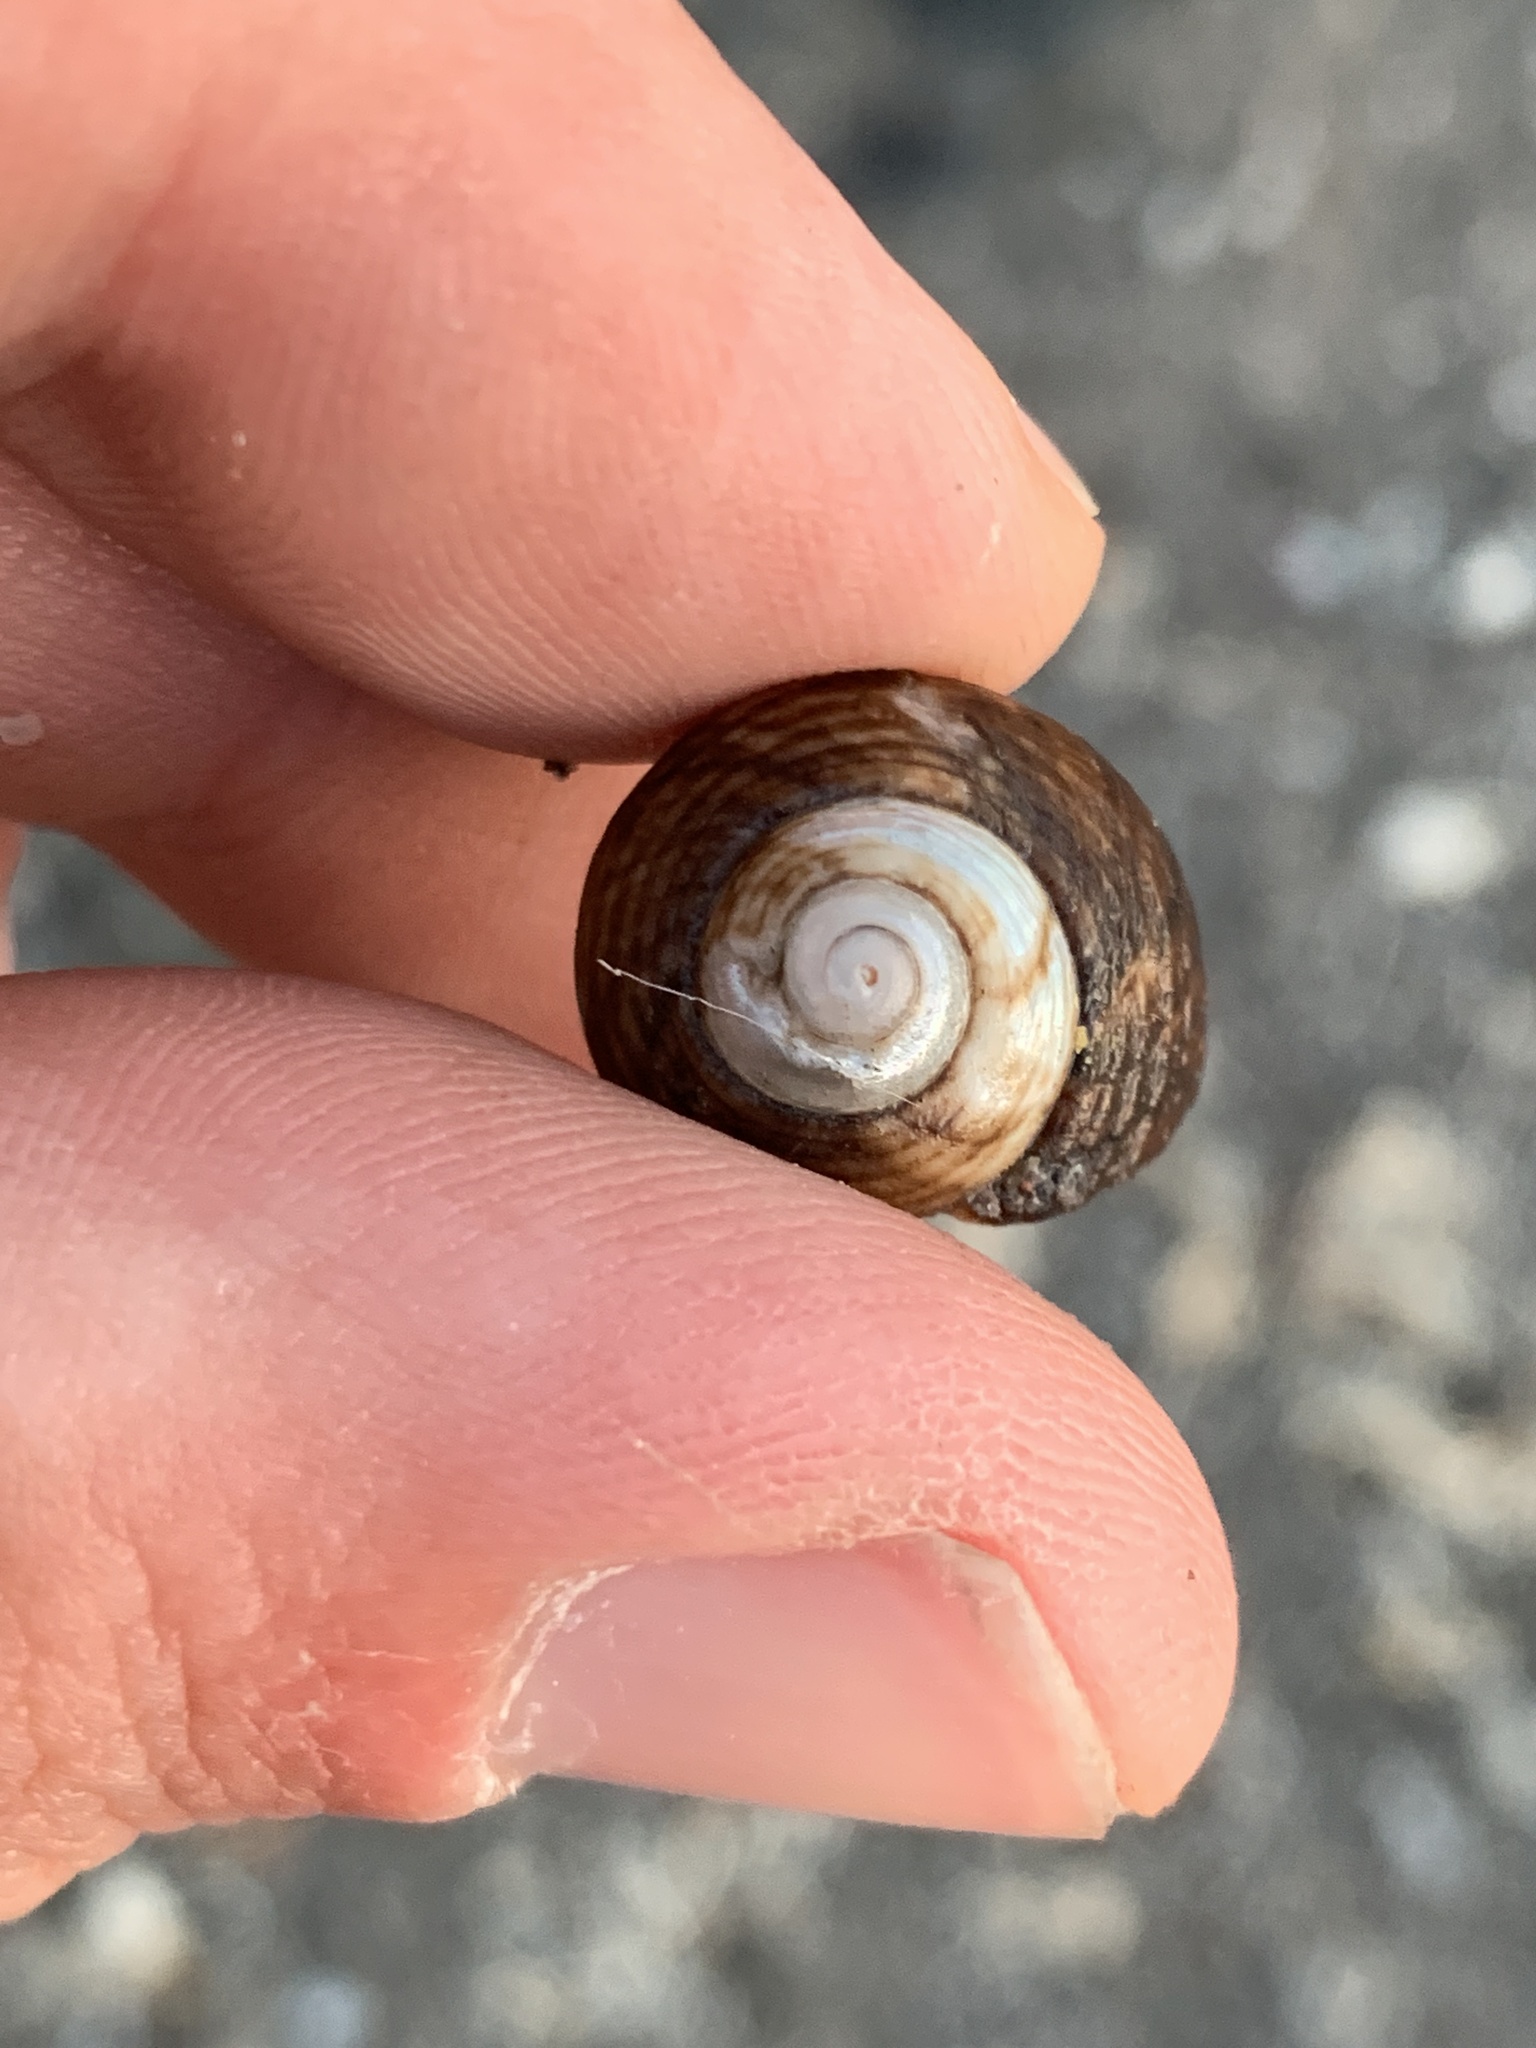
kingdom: Animalia
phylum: Mollusca
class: Gastropoda
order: Trochida
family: Tegulidae
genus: Tegula
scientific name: Tegula patagonica
